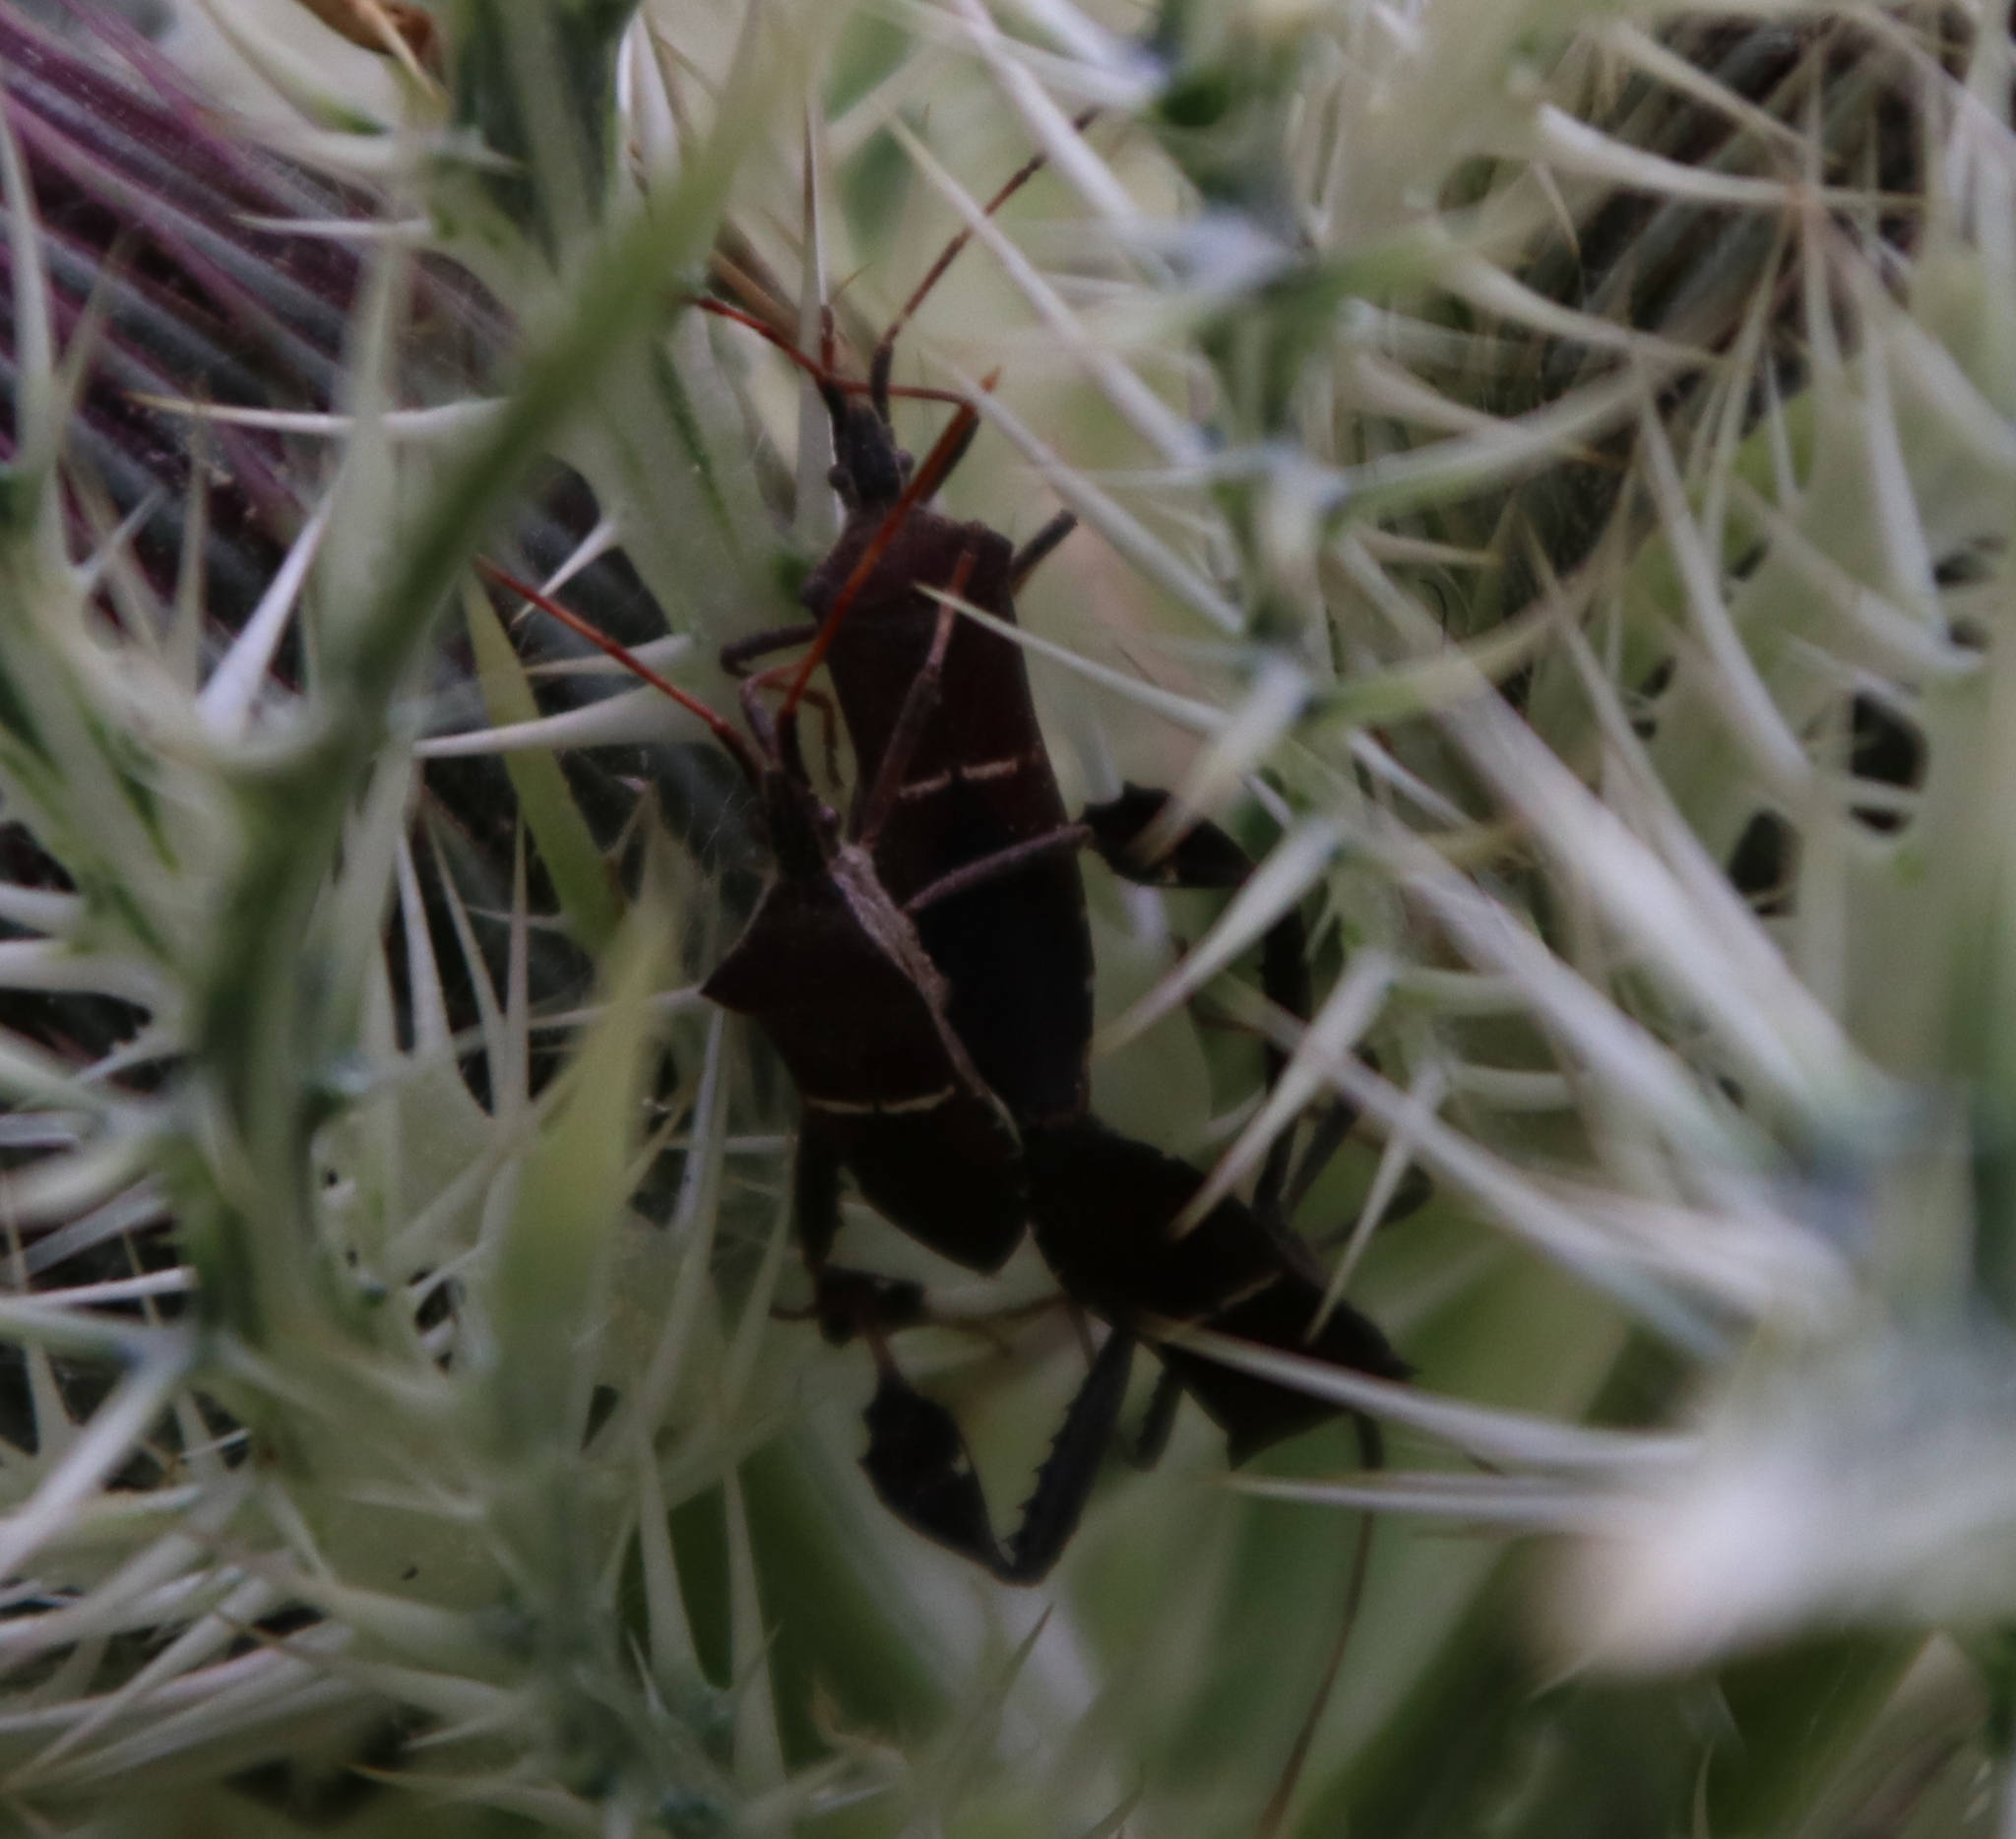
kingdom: Animalia
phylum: Arthropoda
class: Insecta
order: Hemiptera
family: Coreidae
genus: Leptoglossus
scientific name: Leptoglossus phyllopus
